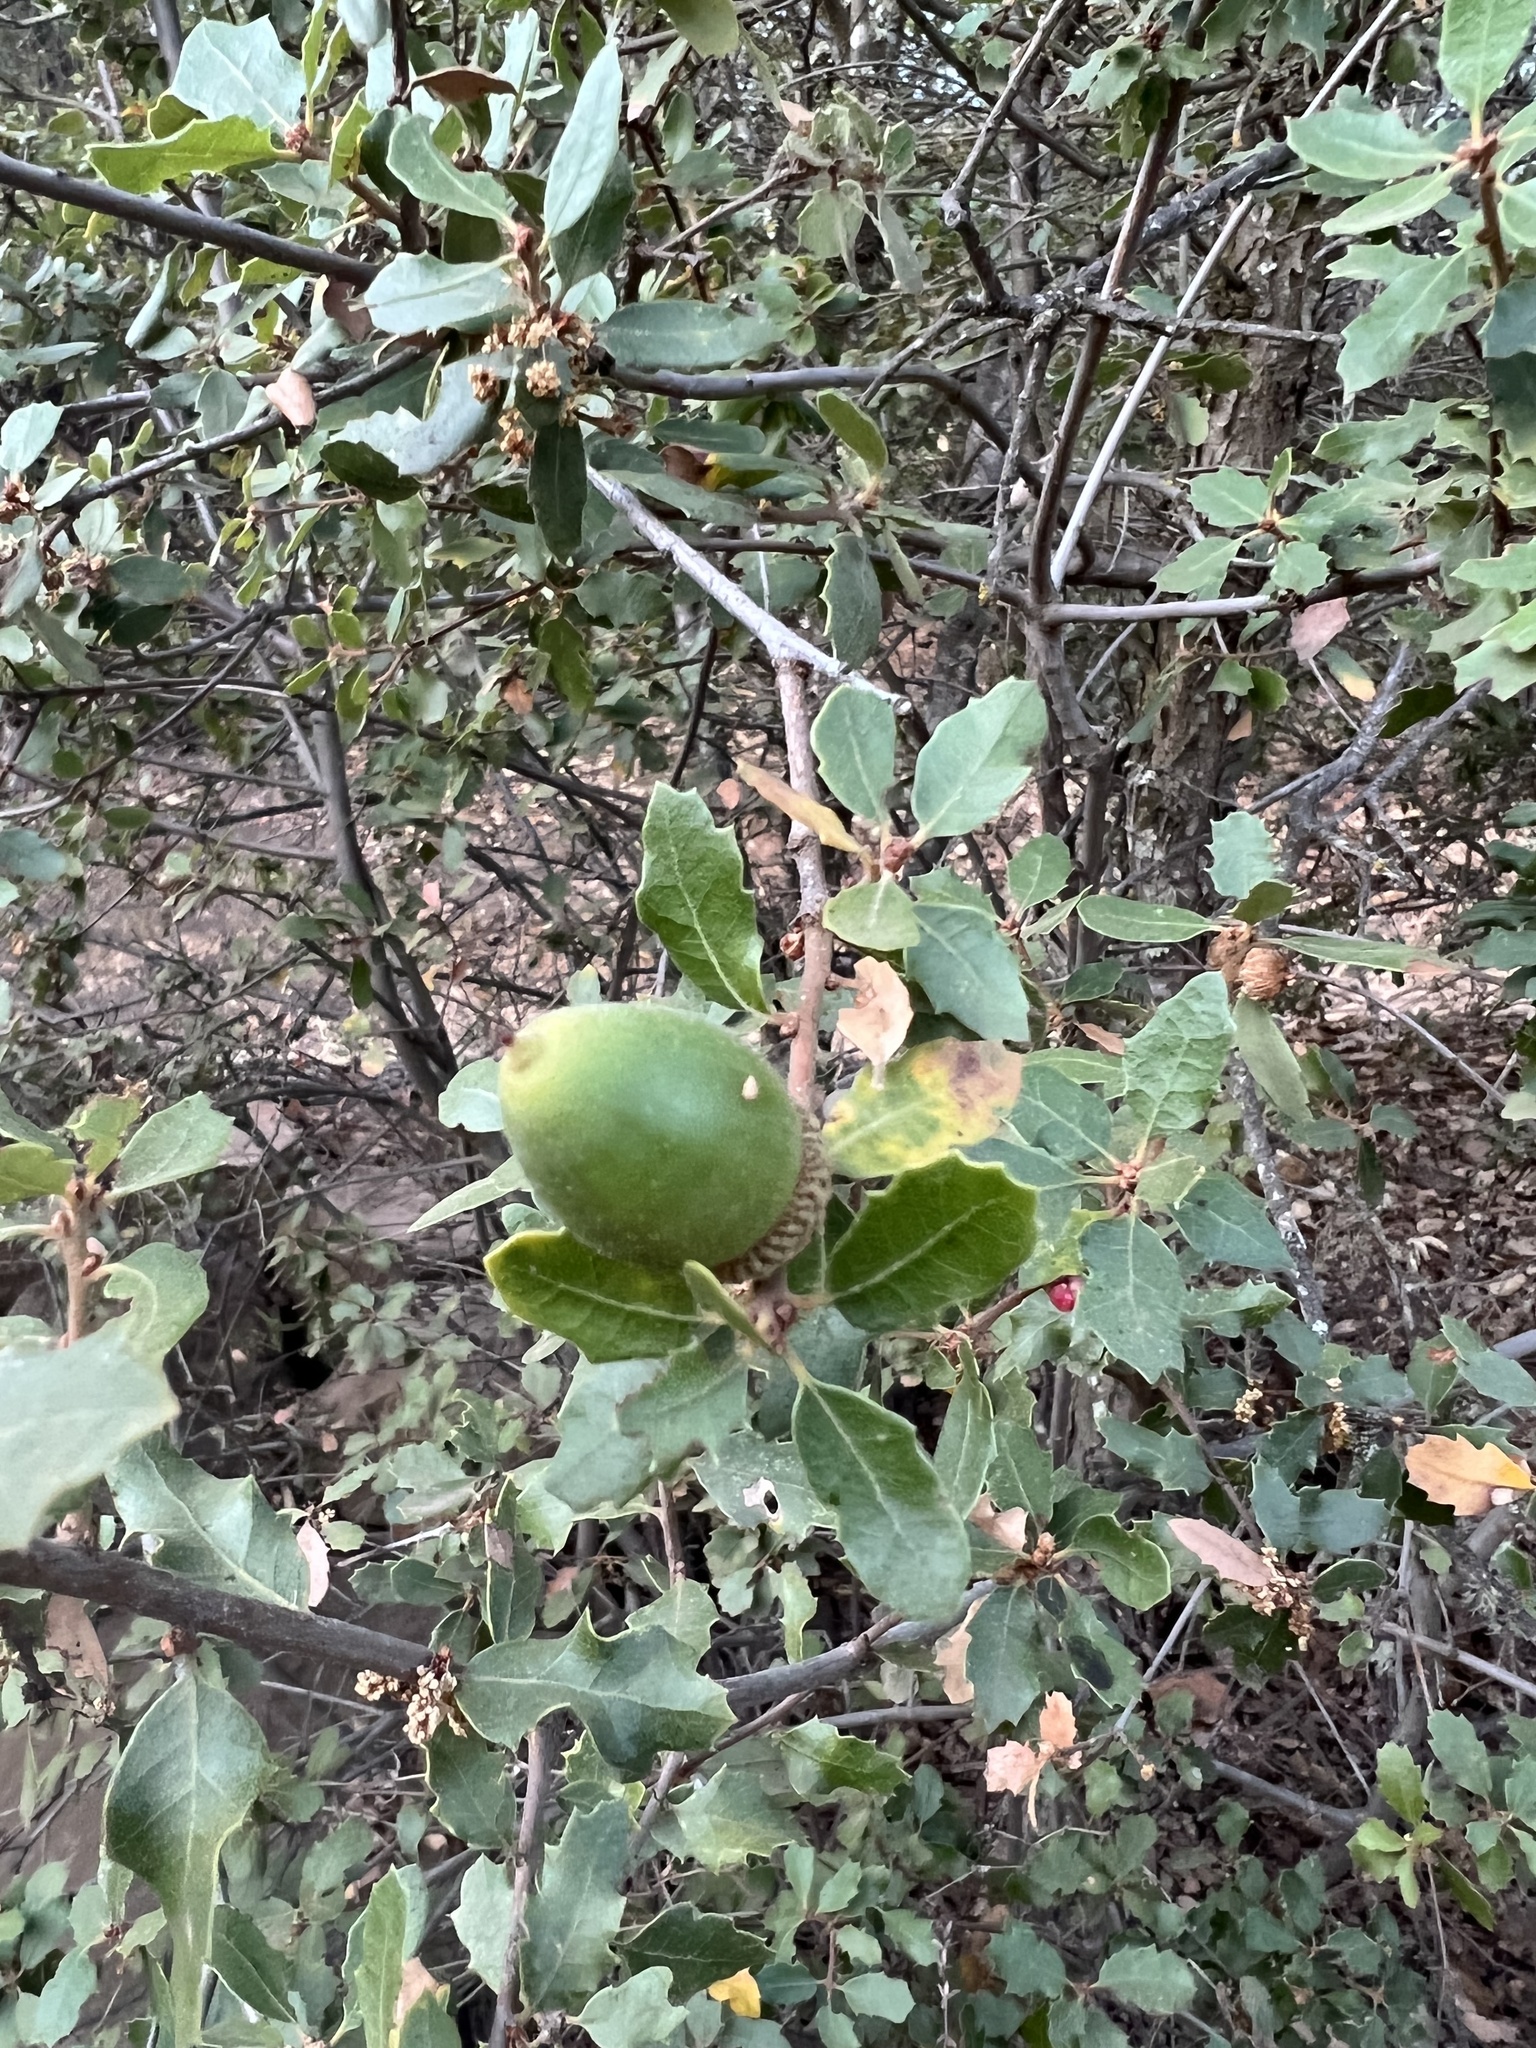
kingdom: Plantae
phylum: Tracheophyta
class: Magnoliopsida
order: Fagales
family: Fagaceae
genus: Quercus
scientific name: Quercus berberidifolia
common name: California scrub oak
